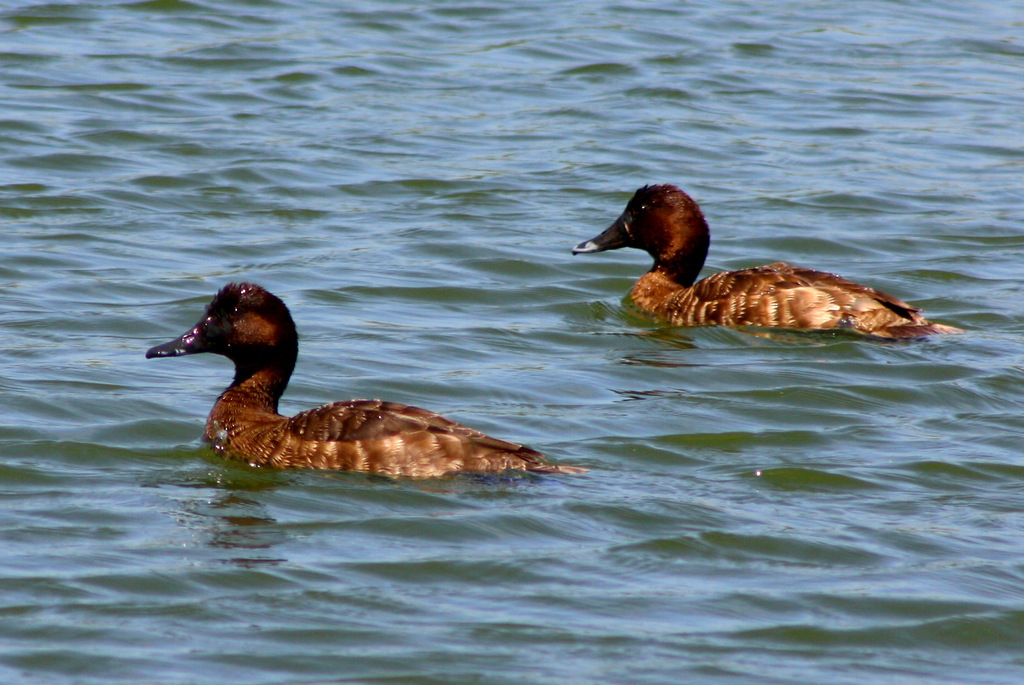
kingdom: Animalia
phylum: Chordata
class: Aves
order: Anseriformes
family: Anatidae
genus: Aythya
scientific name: Aythya australis
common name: Hardhead
